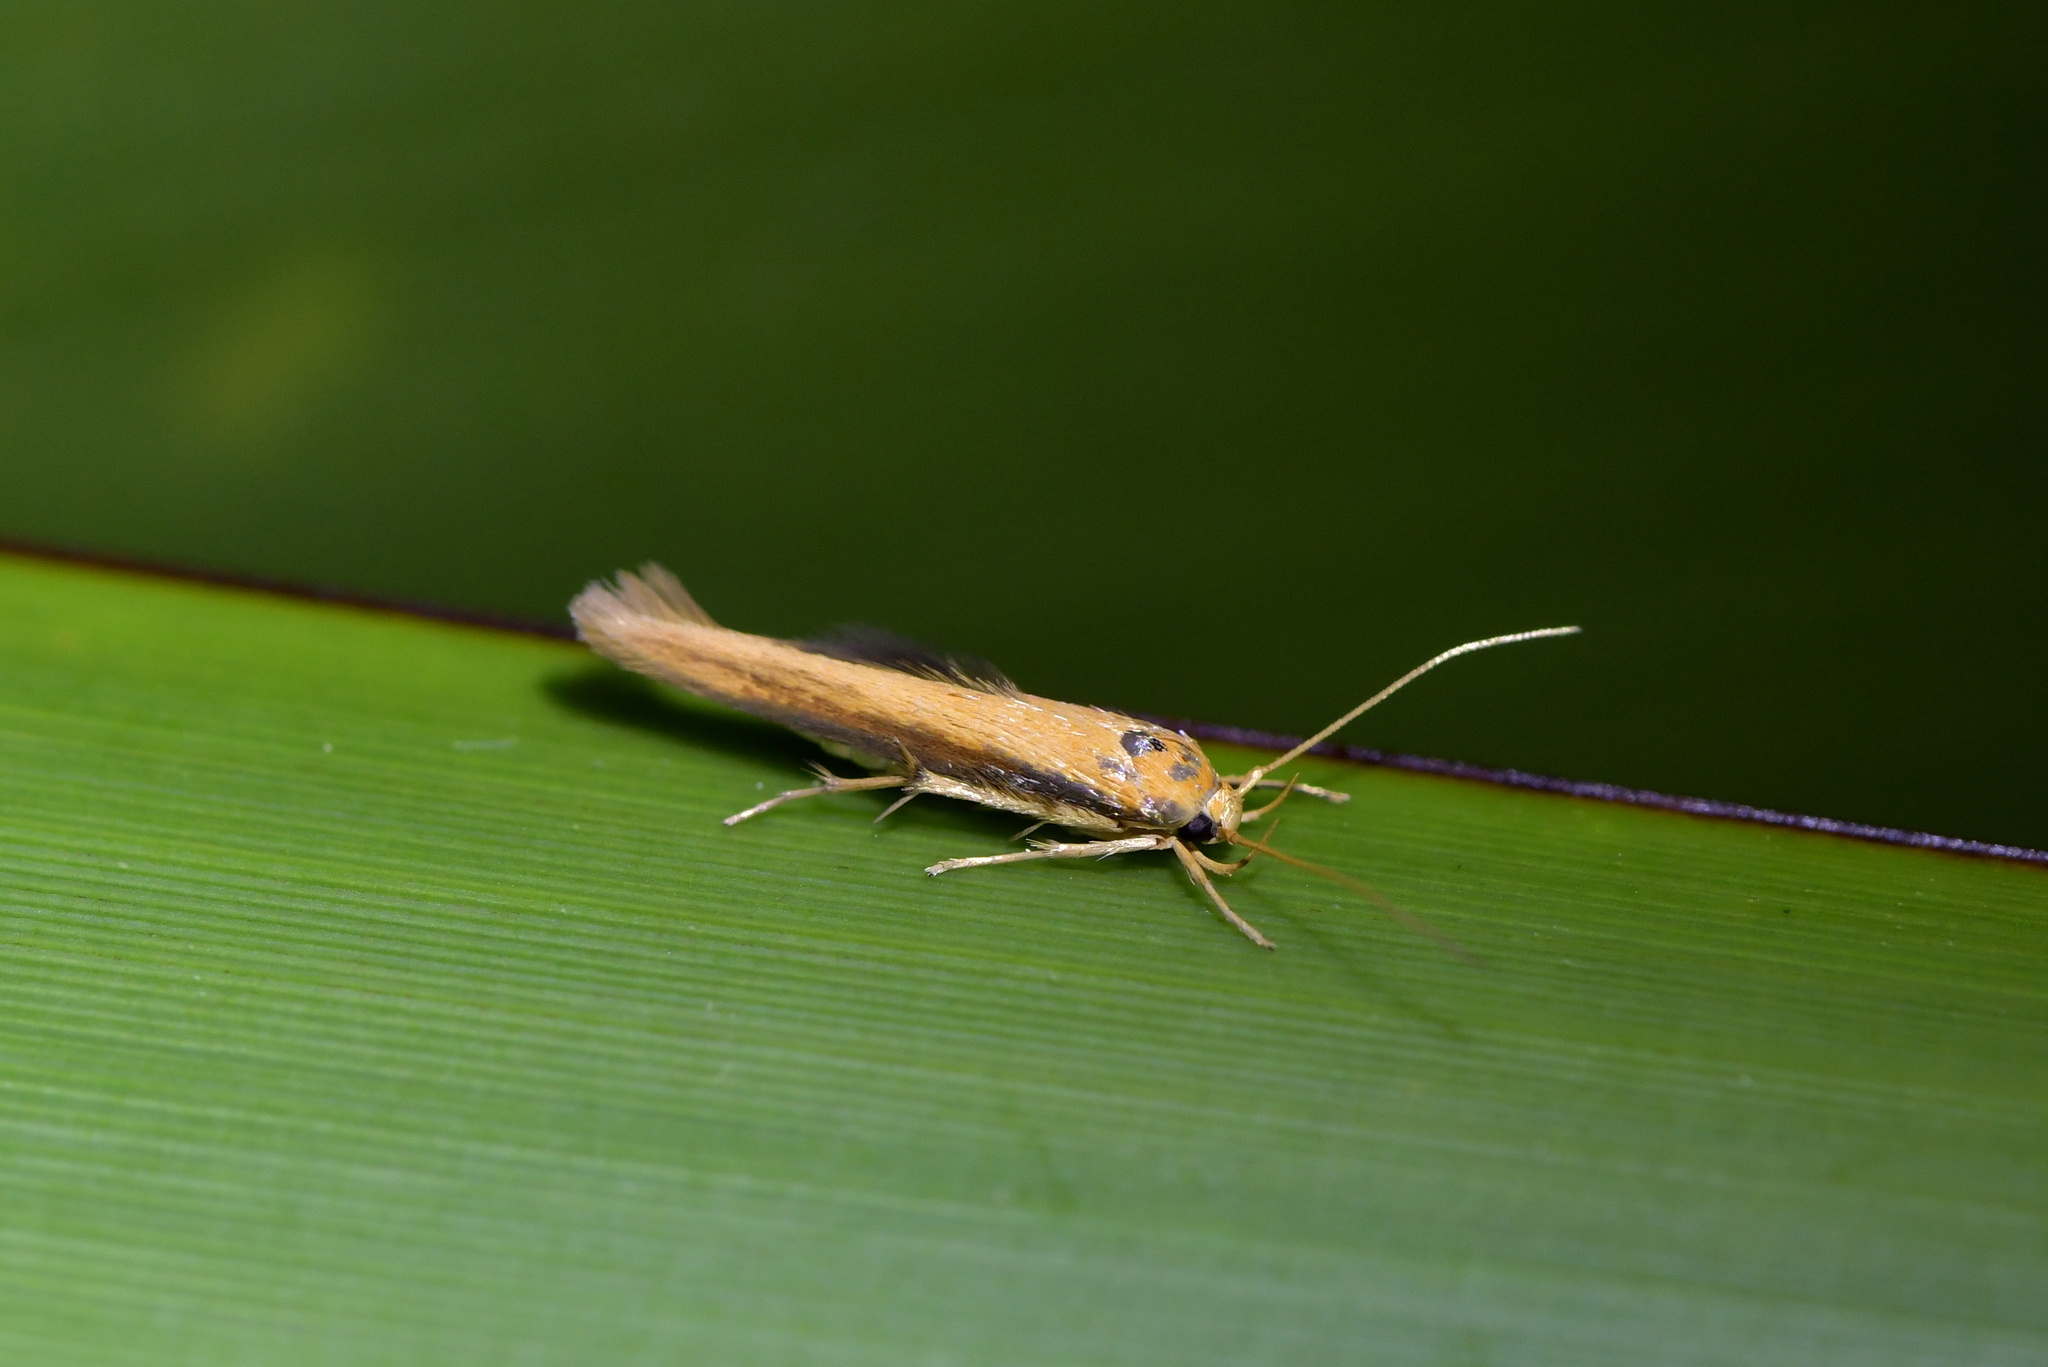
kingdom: Animalia
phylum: Arthropoda
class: Insecta
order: Lepidoptera
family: Stathmopodidae
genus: Stathmopoda
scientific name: Stathmopoda skelloni
